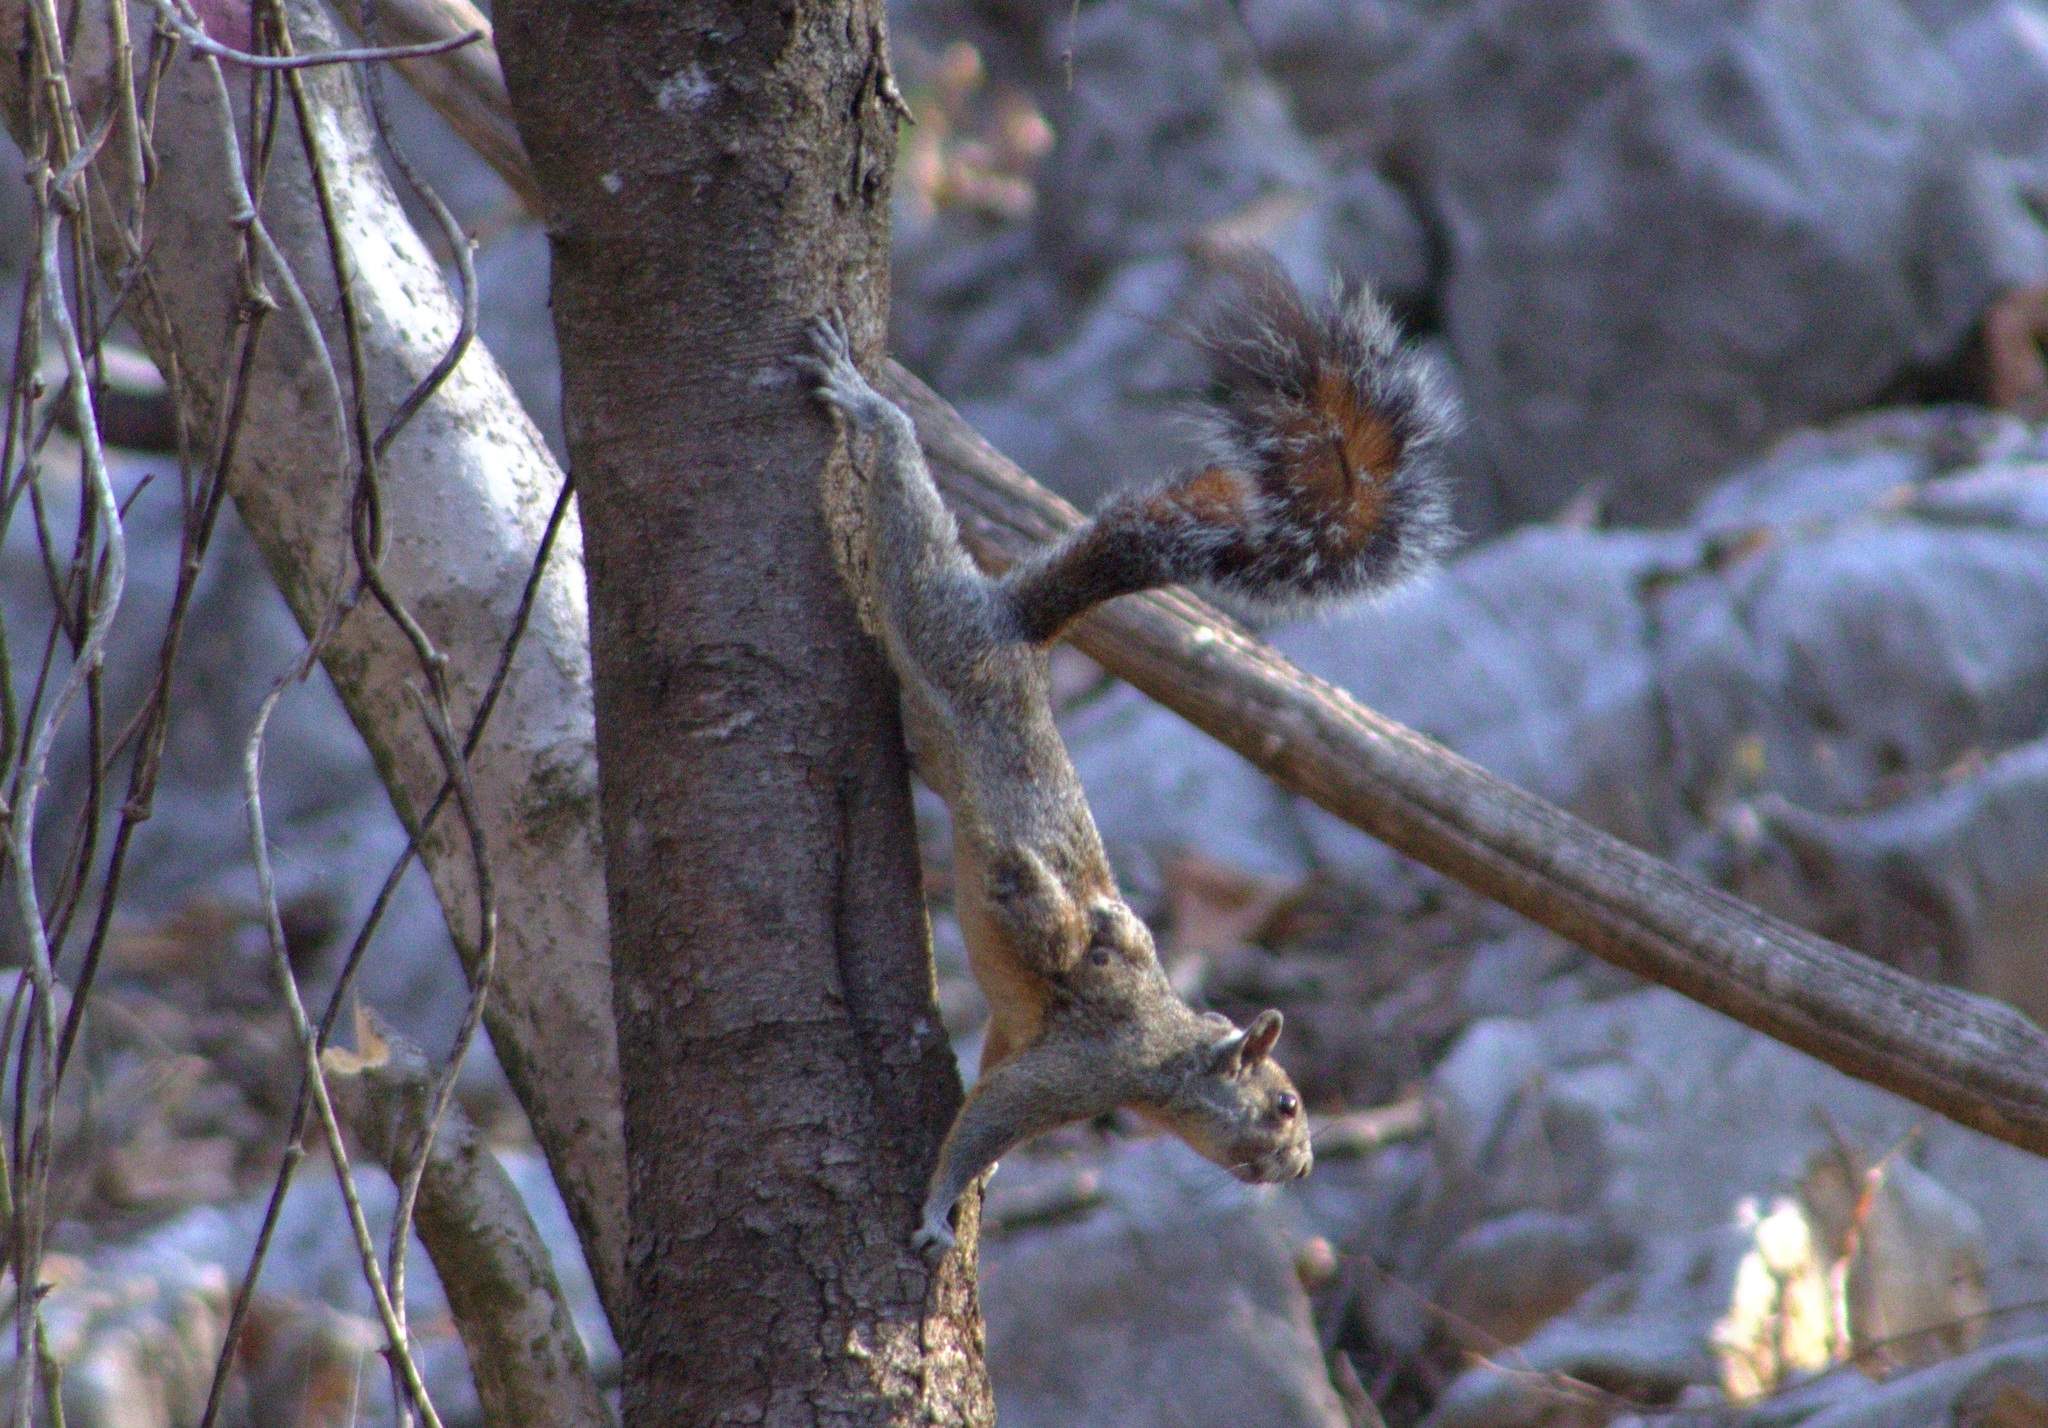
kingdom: Animalia
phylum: Chordata
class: Mammalia
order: Rodentia
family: Sciuridae
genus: Sciurus
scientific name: Sciurus aureogaster
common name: Red-bellied squirrel
